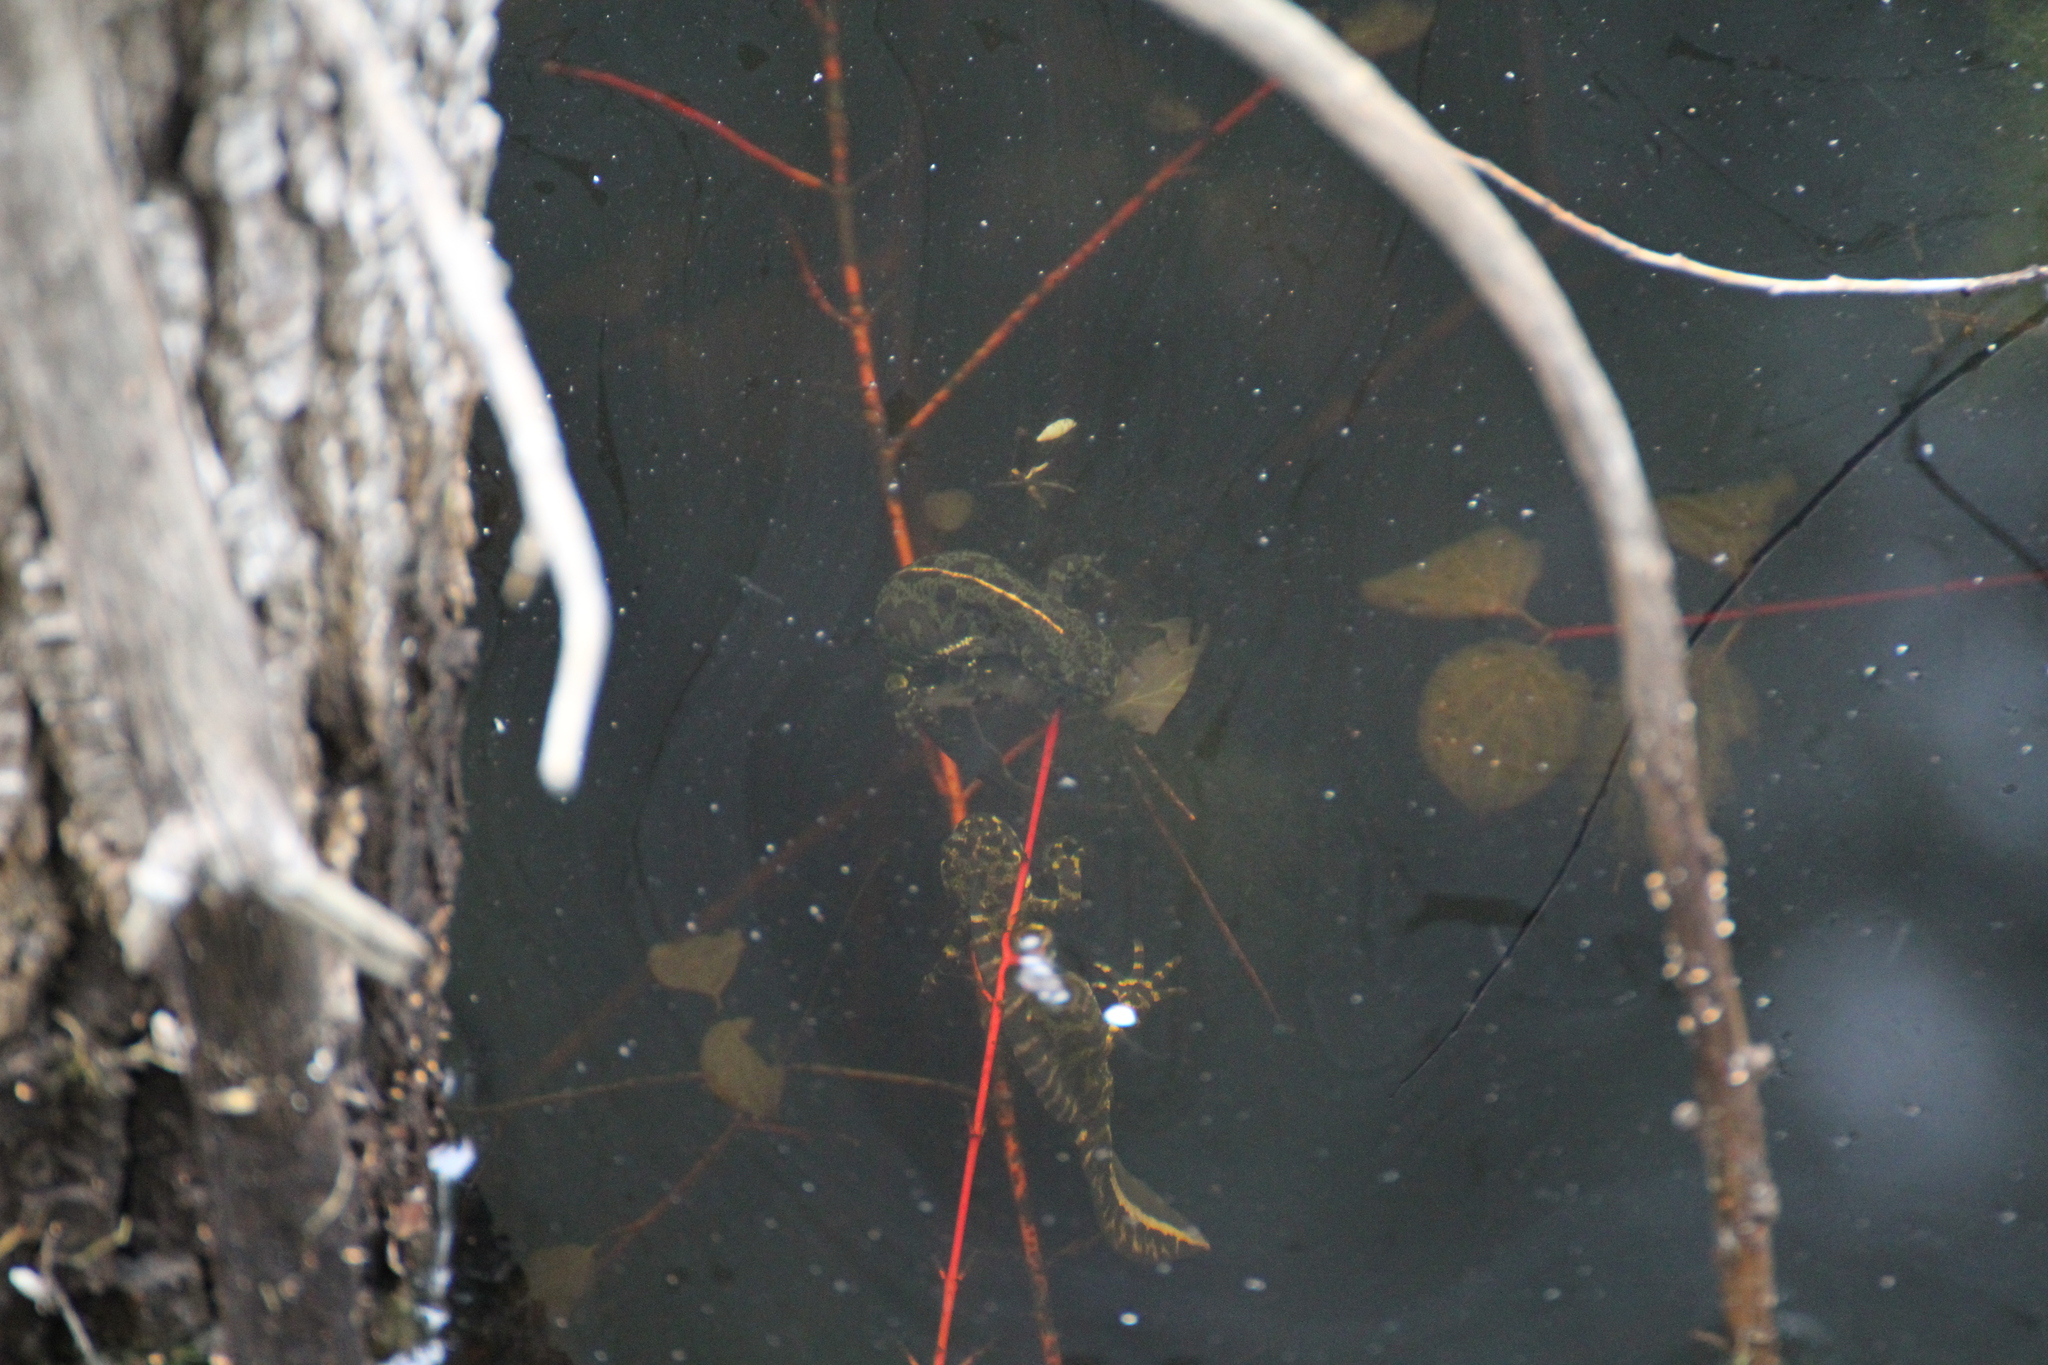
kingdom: Animalia
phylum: Chordata
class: Amphibia
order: Caudata
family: Salamandridae
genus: Triturus
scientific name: Triturus marmoratus
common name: Marbled newt
